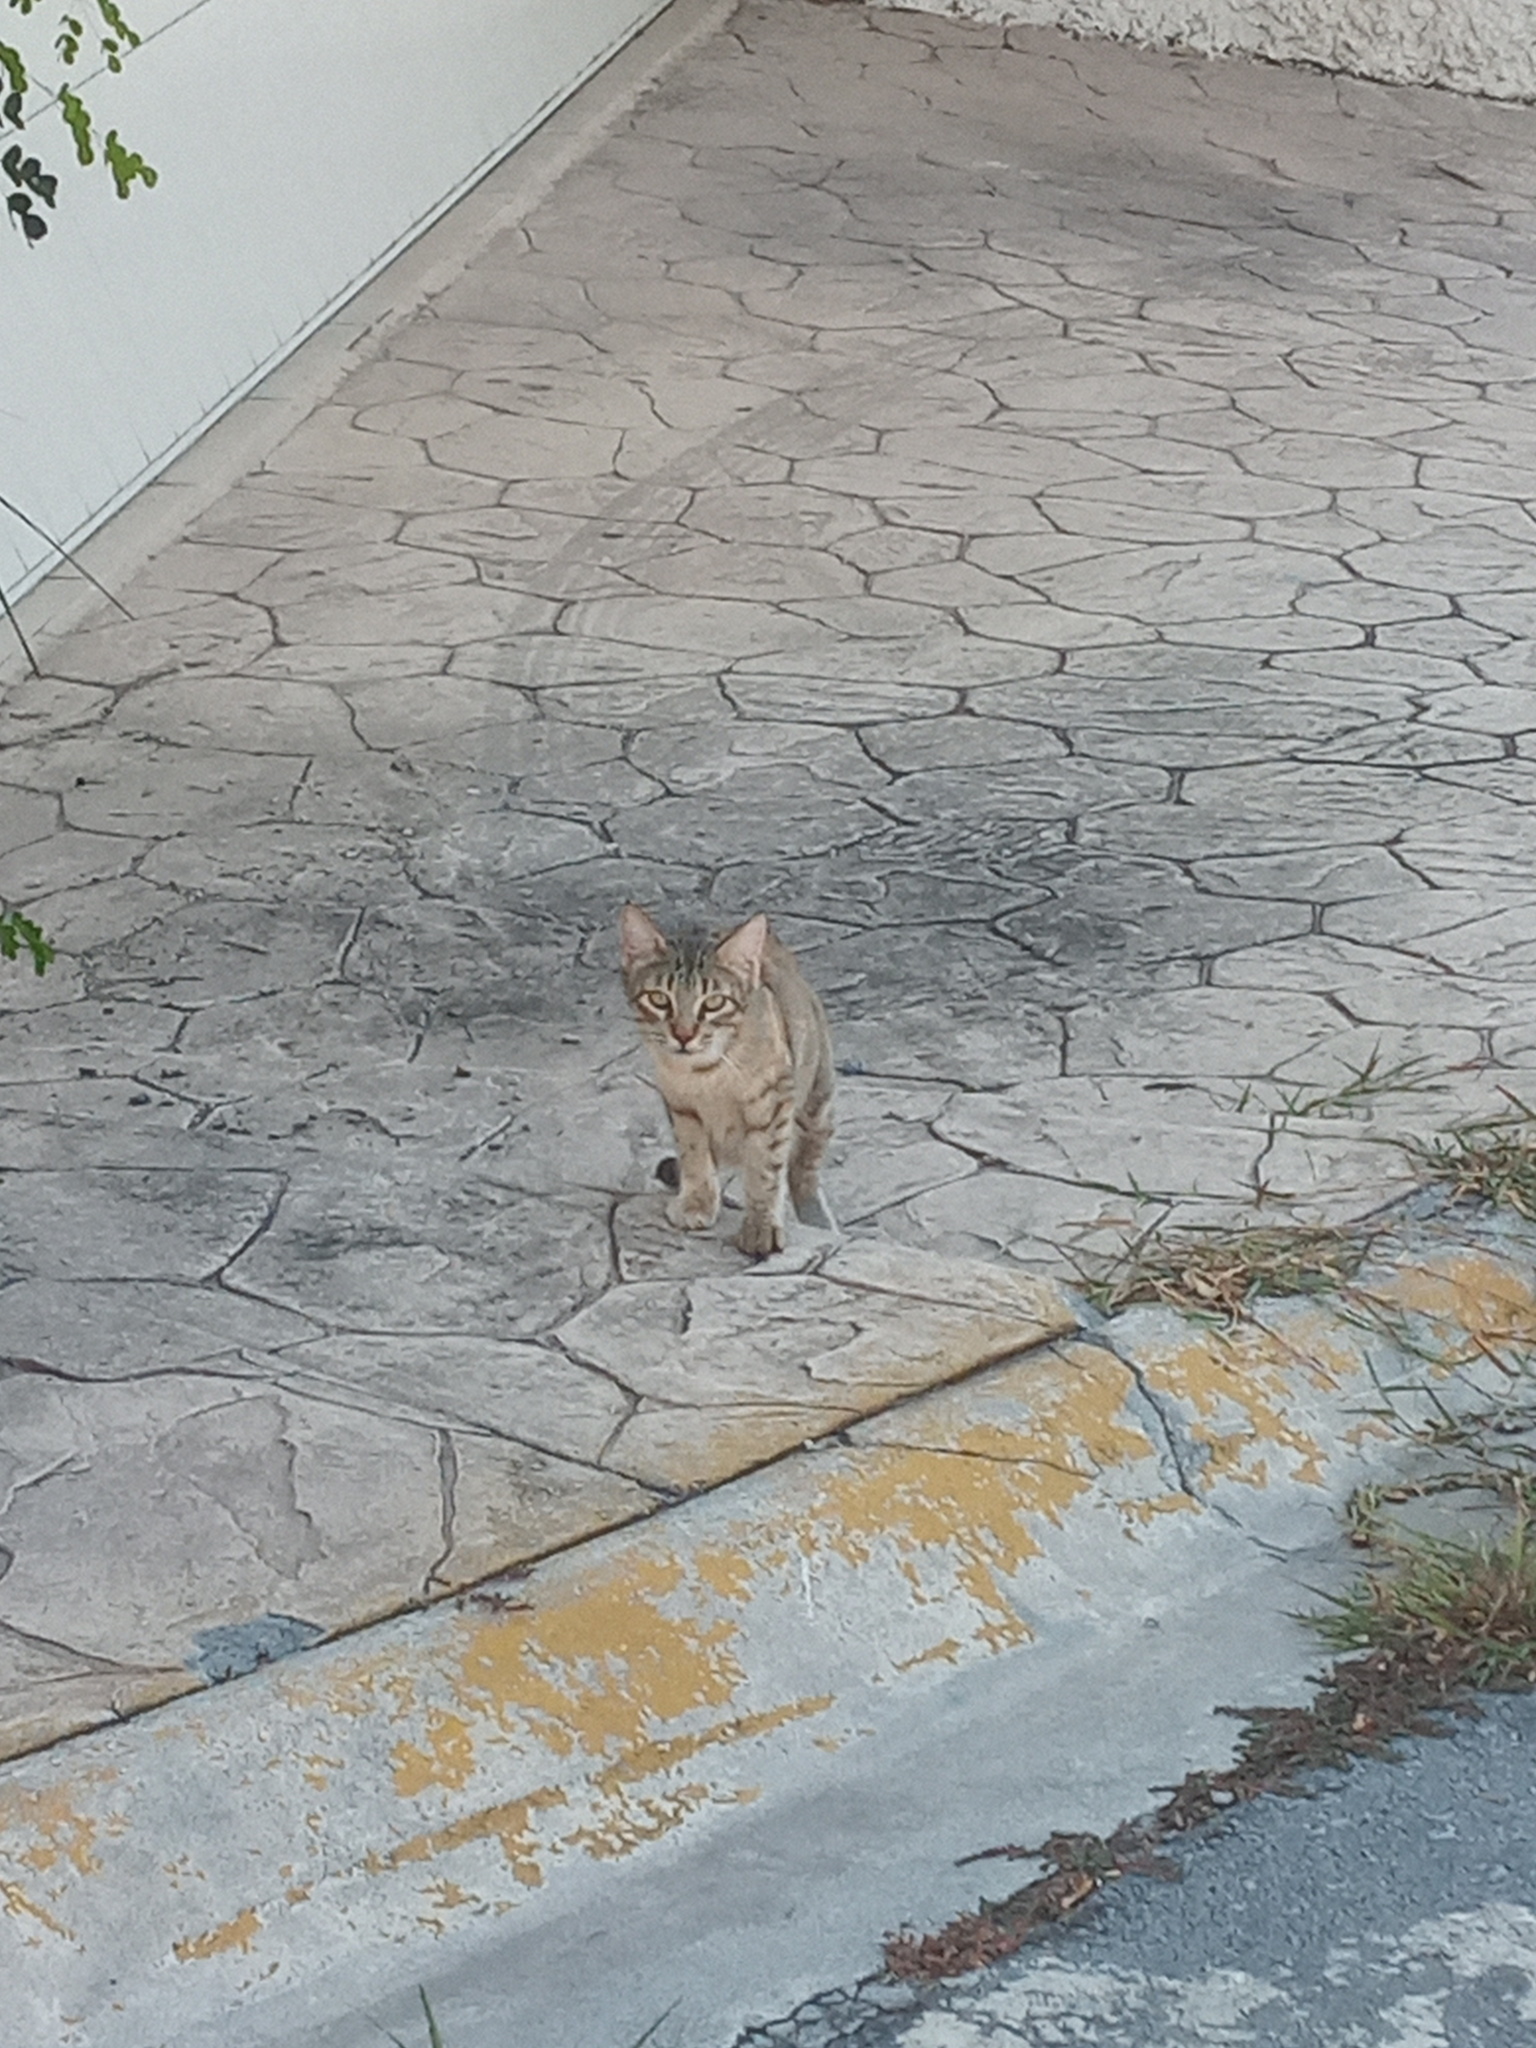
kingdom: Animalia
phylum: Chordata
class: Mammalia
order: Carnivora
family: Felidae
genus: Felis
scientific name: Felis catus
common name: Domestic cat
